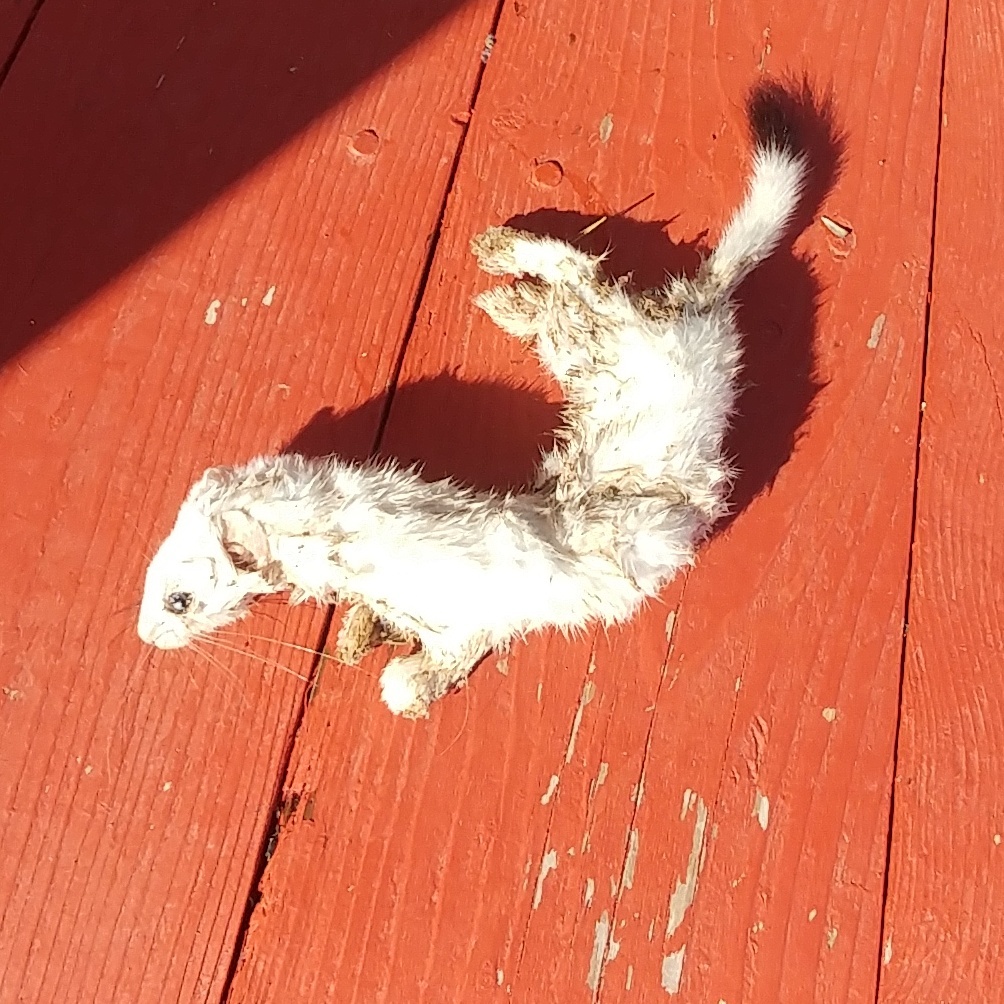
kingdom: Animalia
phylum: Chordata
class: Mammalia
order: Carnivora
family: Mustelidae
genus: Mustela
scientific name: Mustela erminea
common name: Stoat
